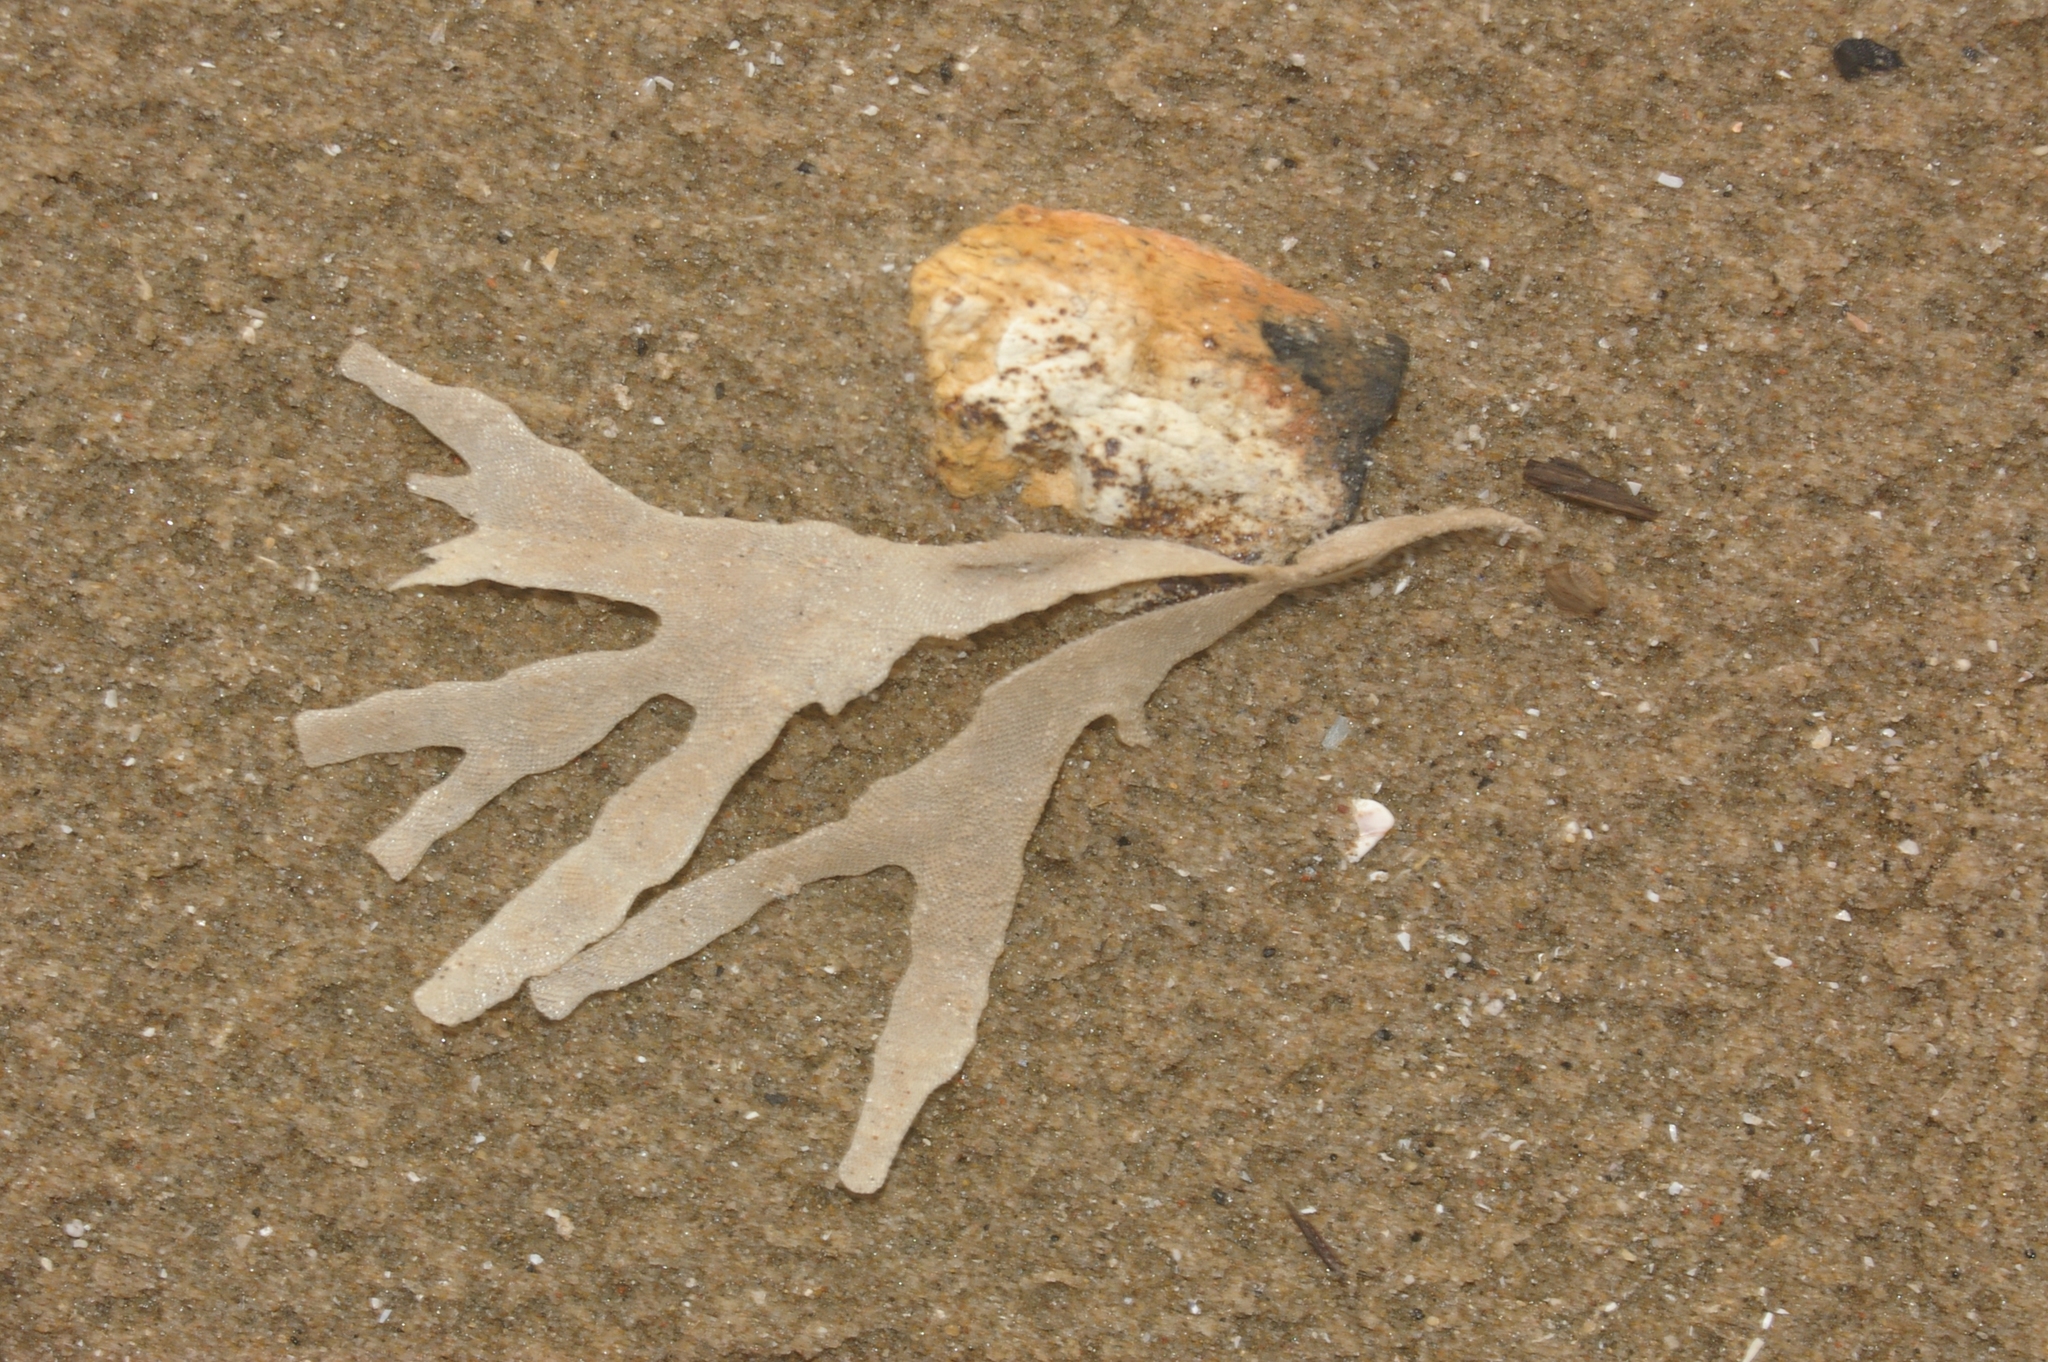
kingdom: Animalia
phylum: Bryozoa
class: Gymnolaemata
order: Cheilostomatida
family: Flustridae
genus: Flustra
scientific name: Flustra foliacea
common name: Hornwrack
